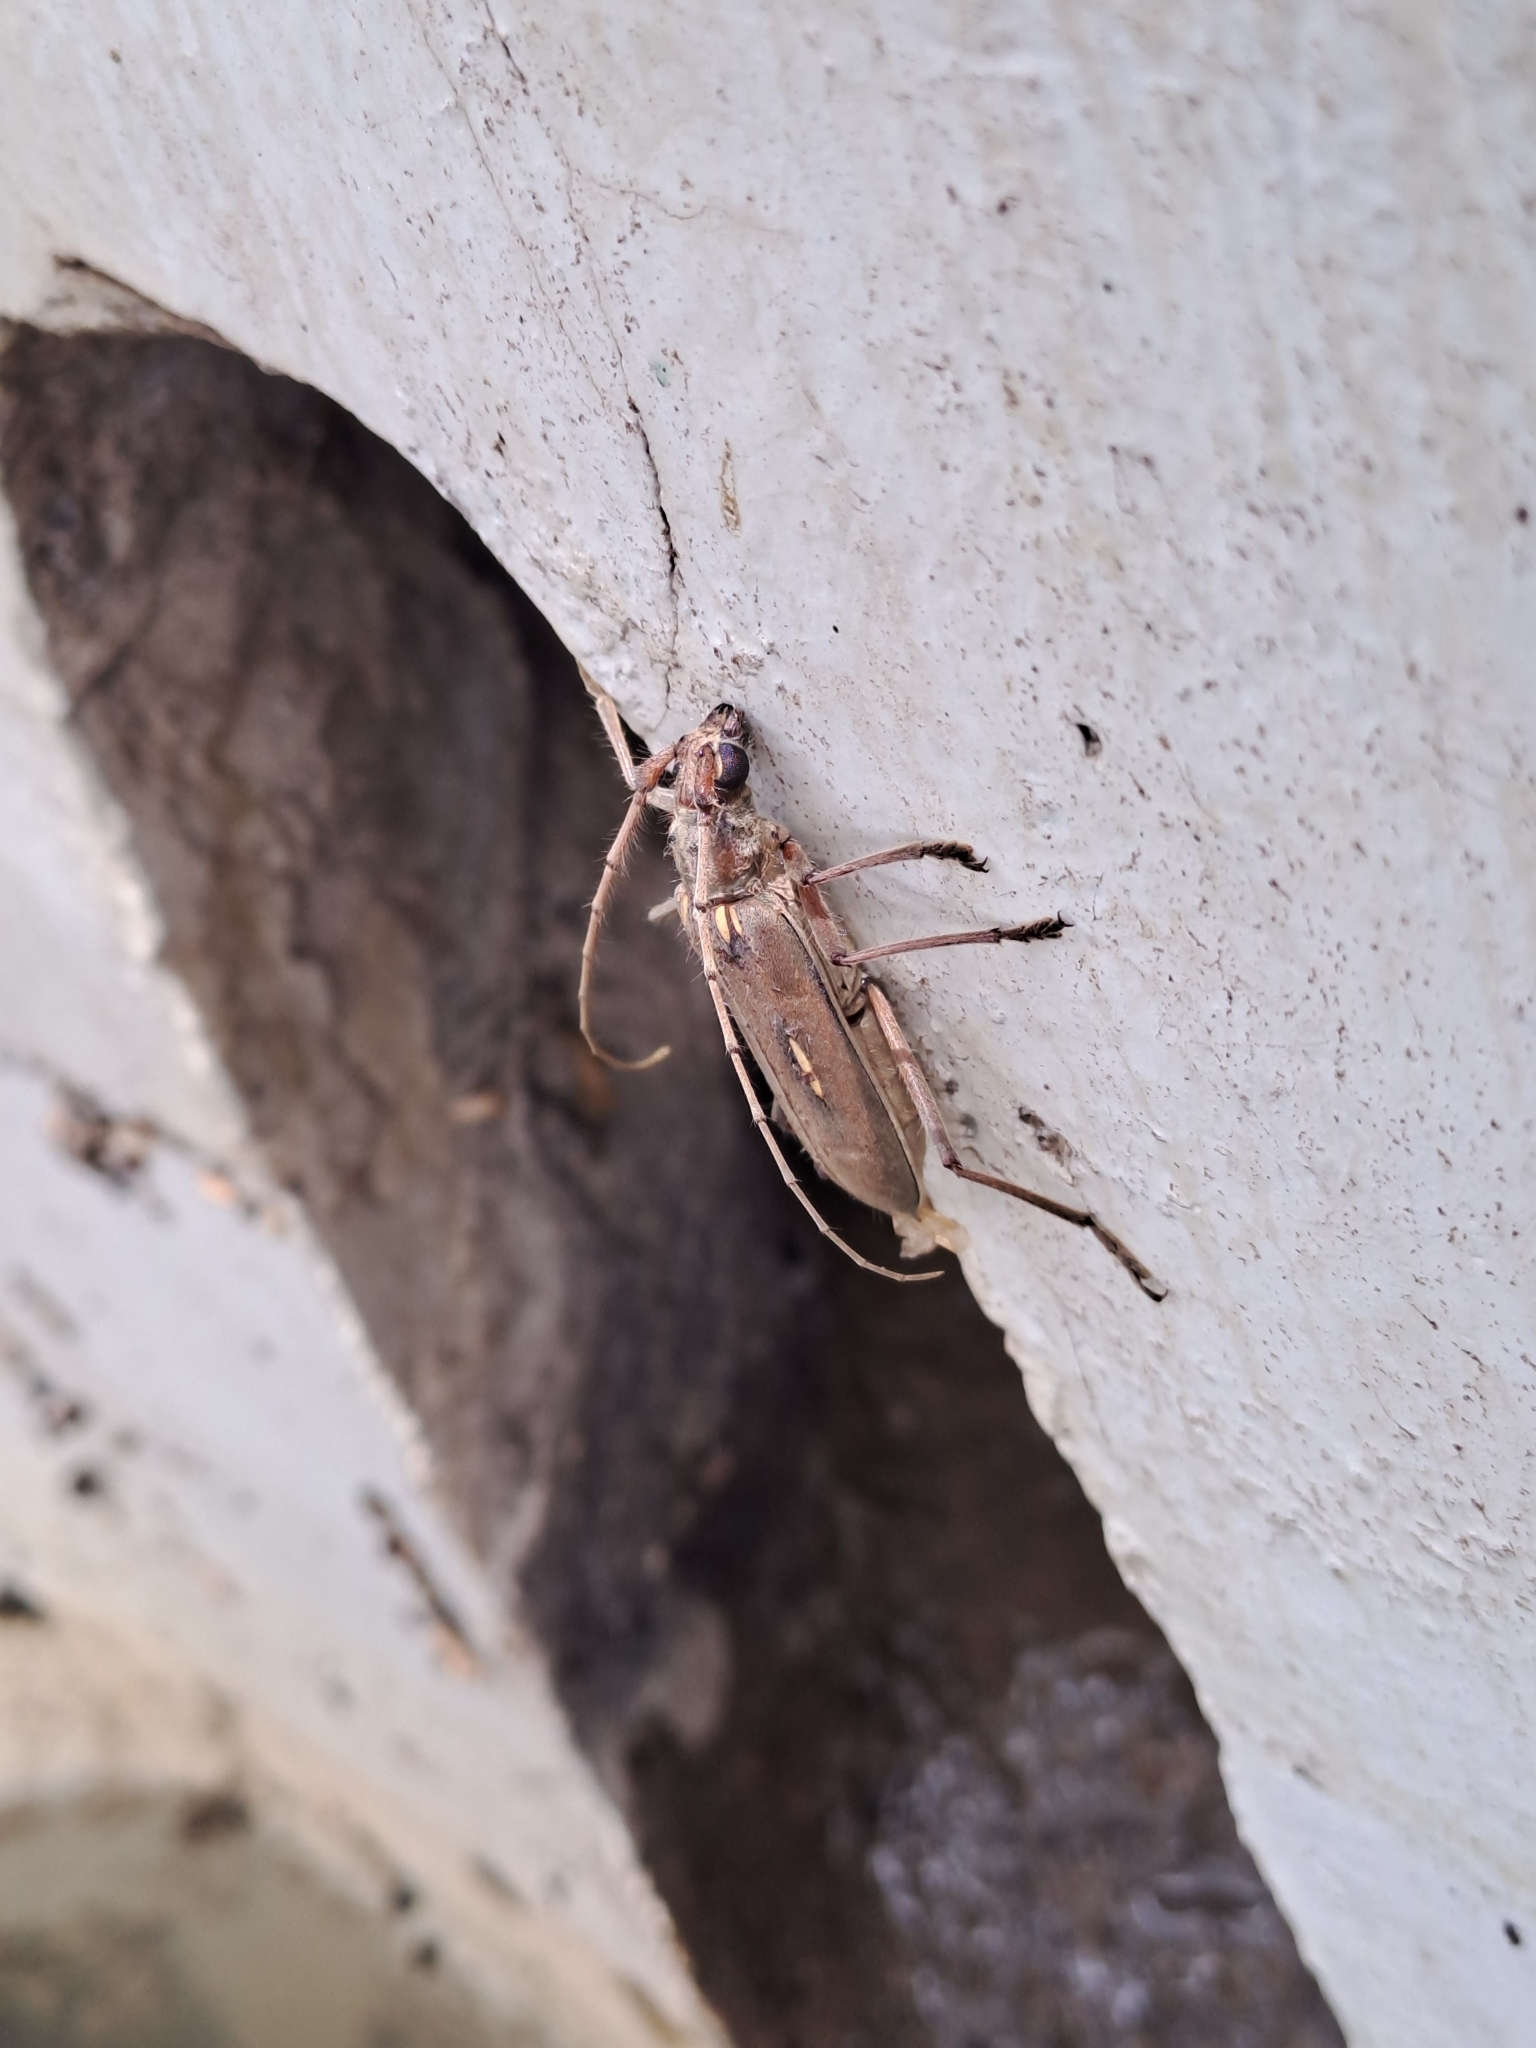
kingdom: Animalia
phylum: Arthropoda
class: Insecta
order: Coleoptera
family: Cerambycidae
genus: Eburia
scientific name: Eburia pilosa
